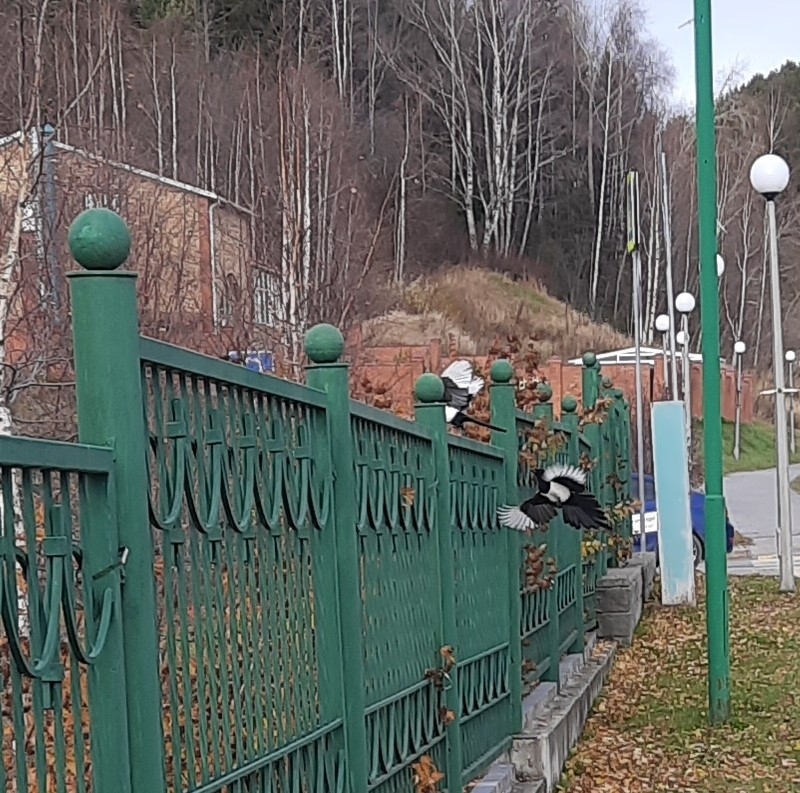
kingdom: Animalia
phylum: Chordata
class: Aves
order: Passeriformes
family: Corvidae
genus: Pica
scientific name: Pica pica
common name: Eurasian magpie
